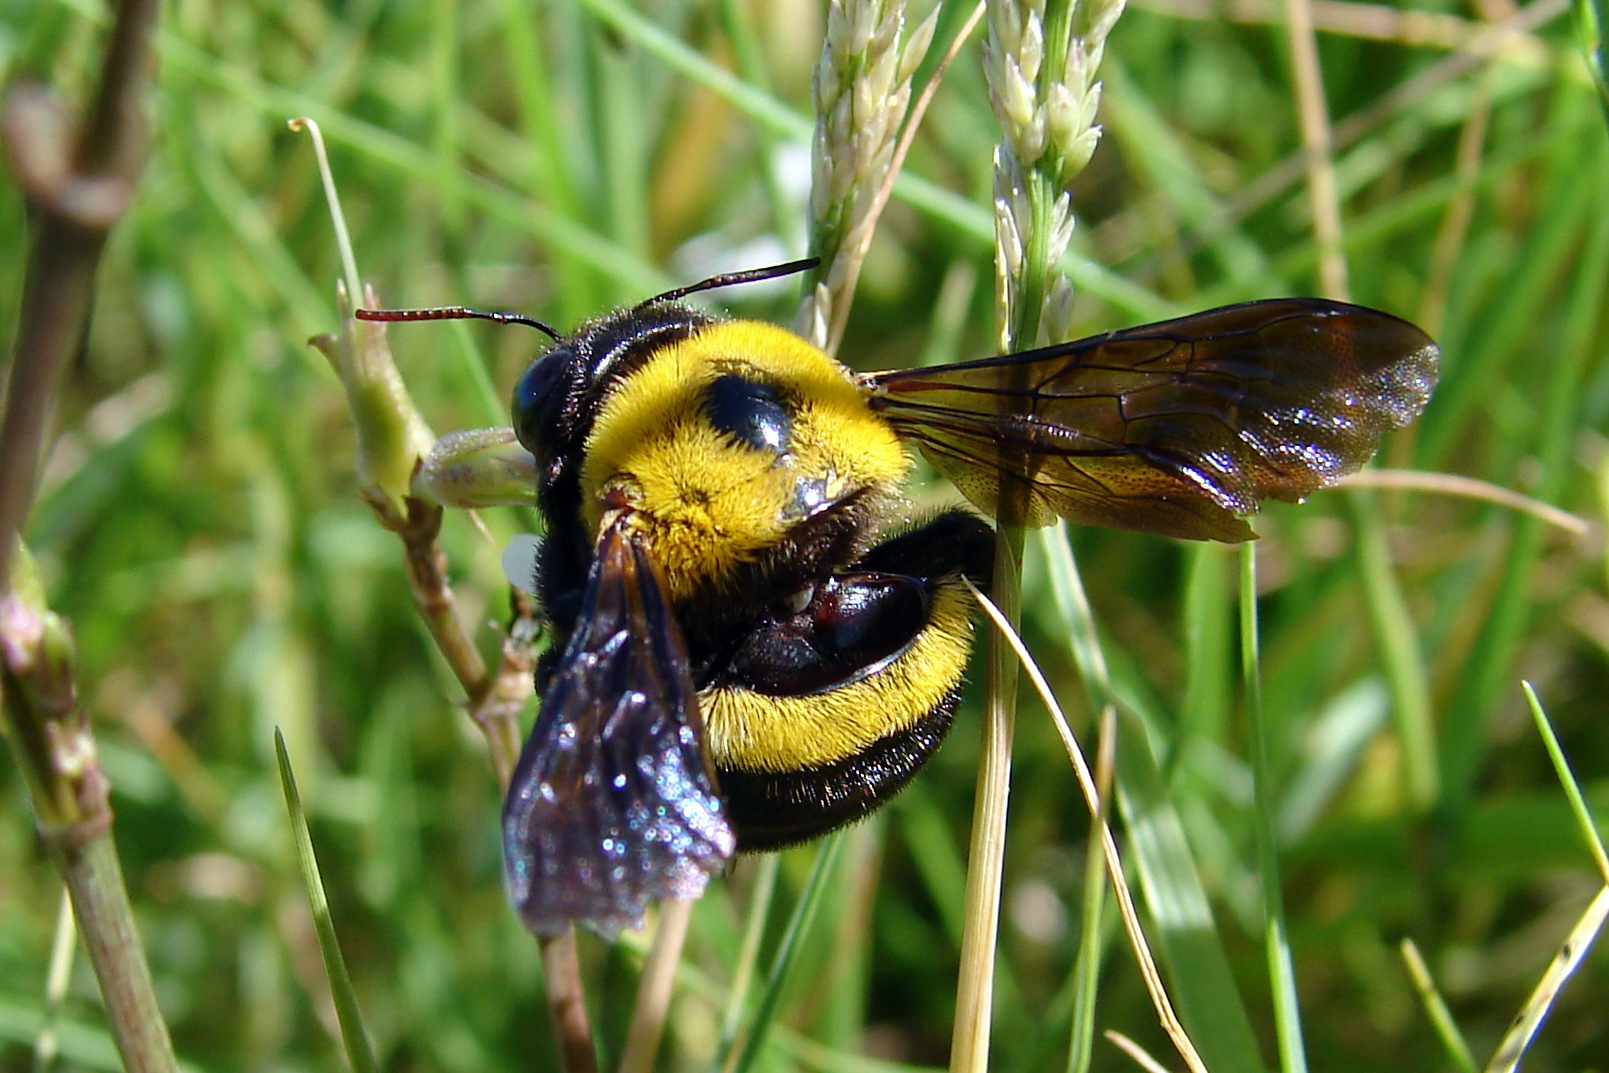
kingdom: Animalia
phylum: Arthropoda
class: Insecta
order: Hymenoptera
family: Apidae
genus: Xylocopa
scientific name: Xylocopa caffra
